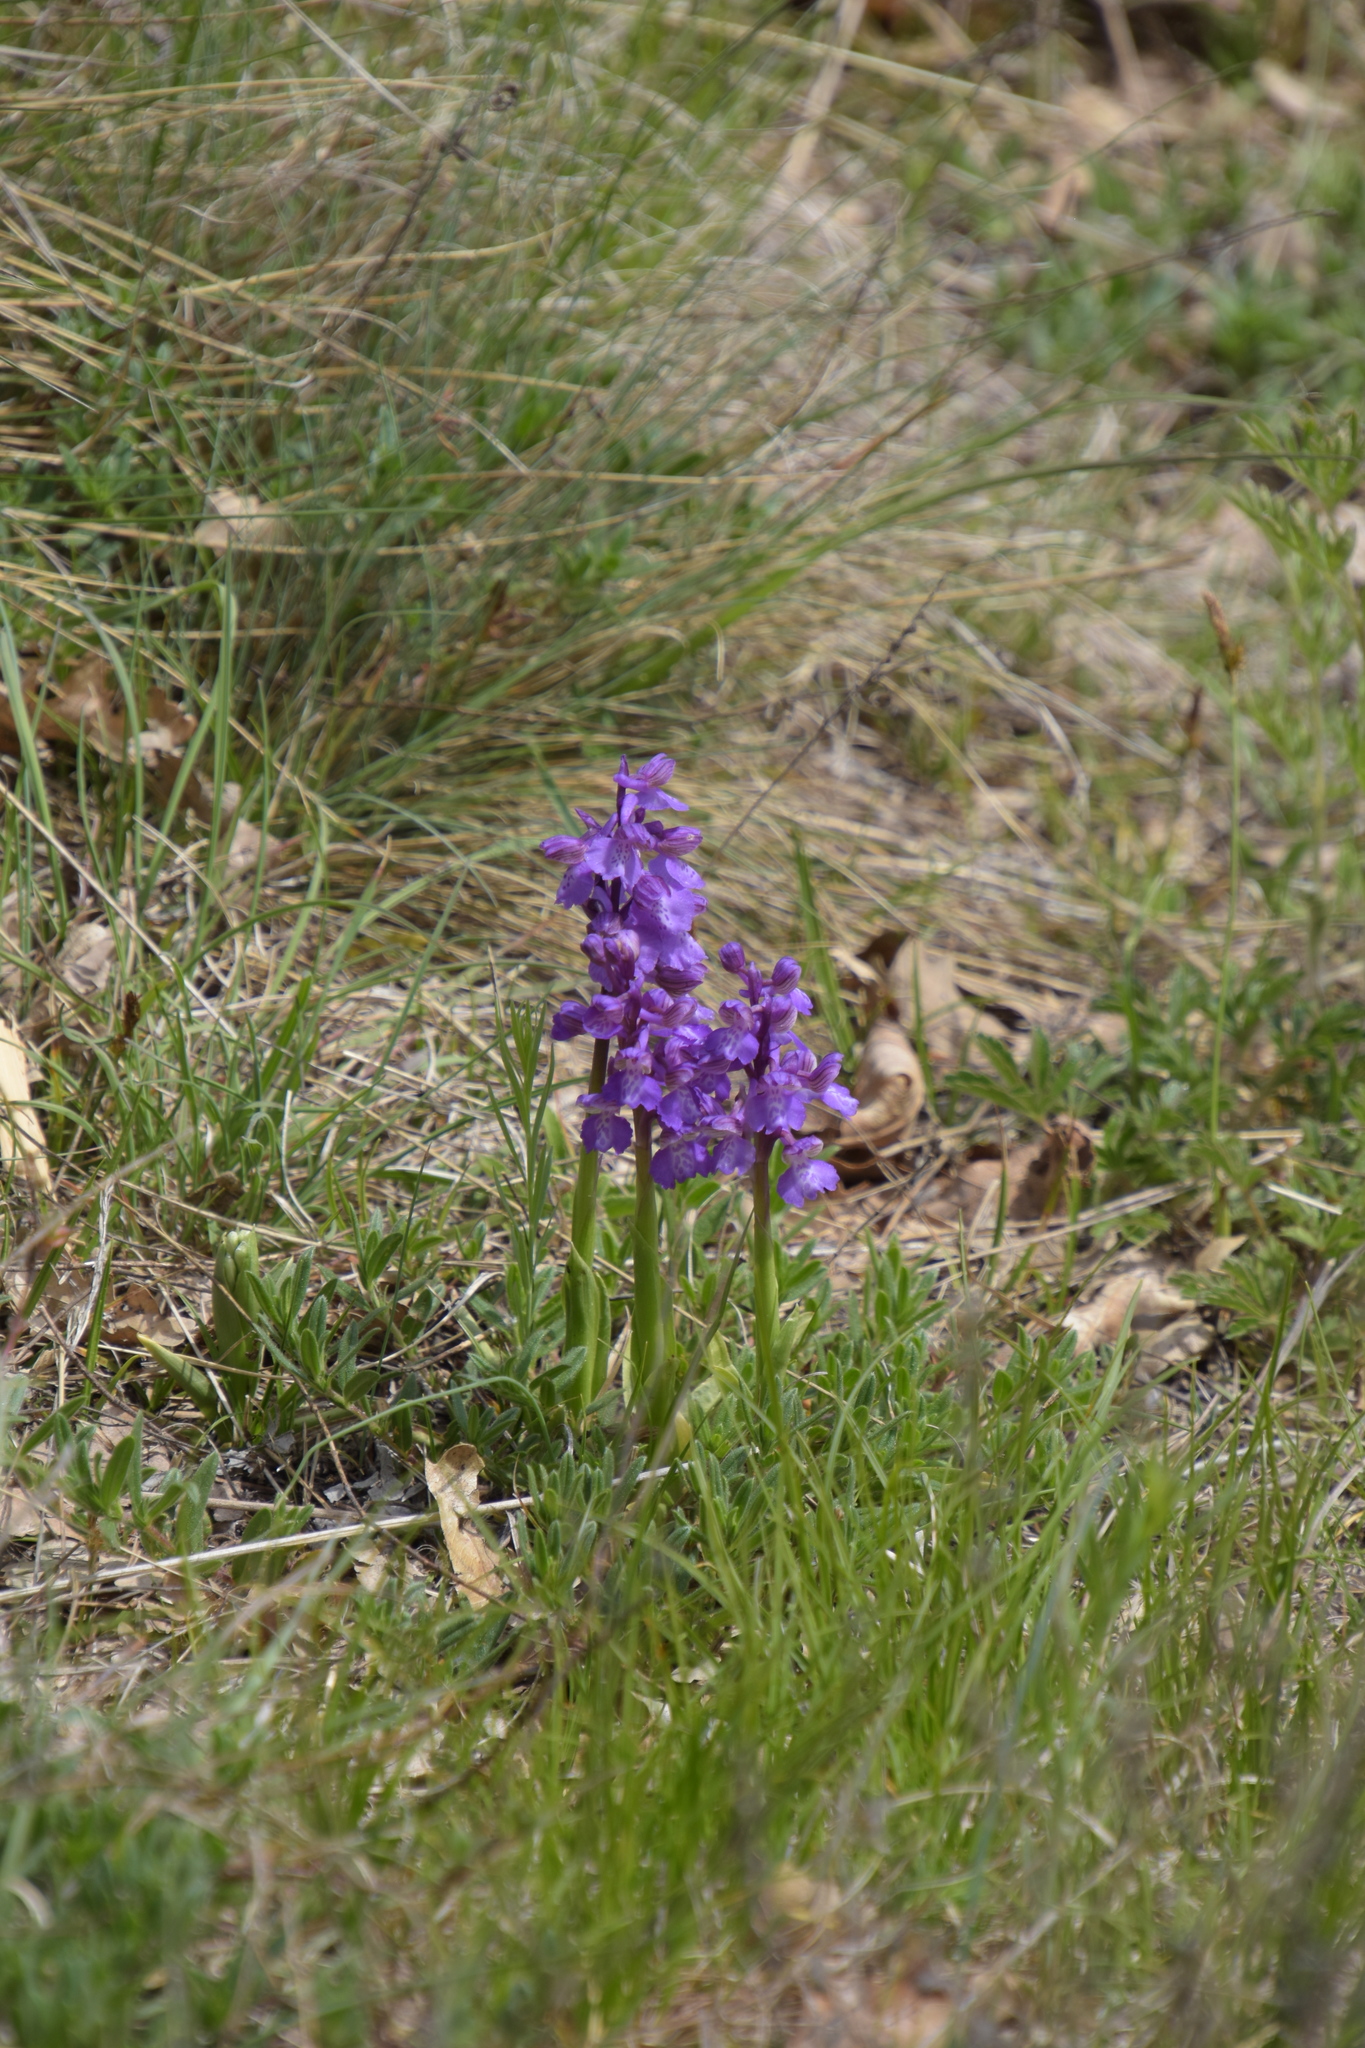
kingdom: Plantae
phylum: Tracheophyta
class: Liliopsida
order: Asparagales
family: Orchidaceae
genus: Anacamptis
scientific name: Anacamptis morio
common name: Green-winged orchid
